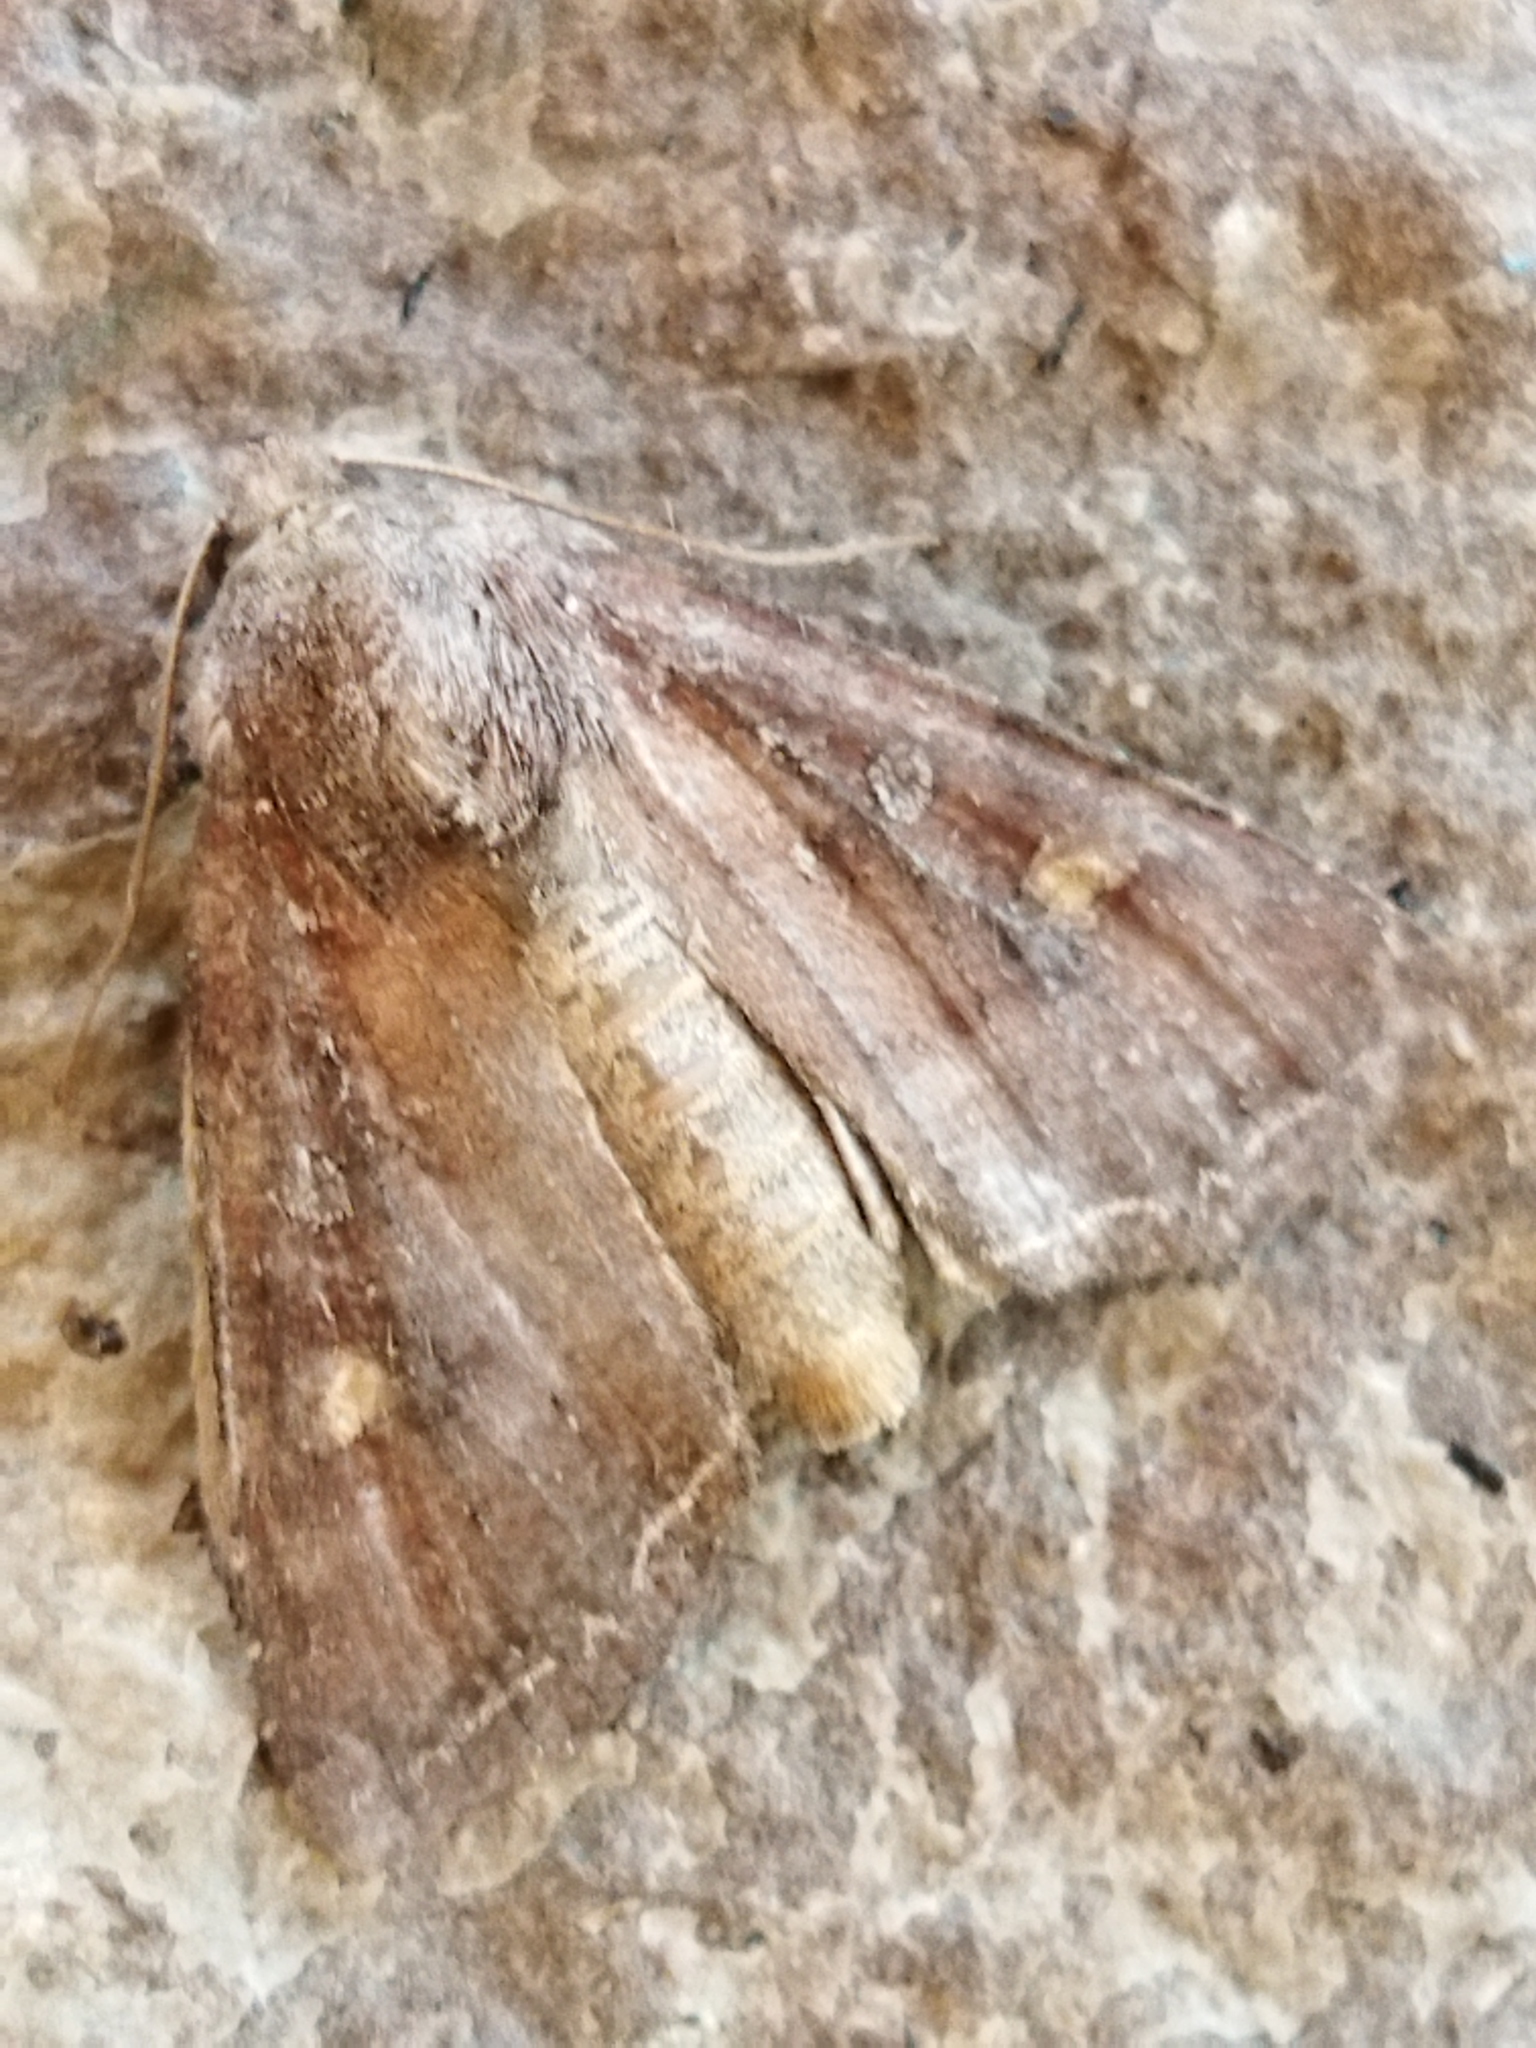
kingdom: Animalia
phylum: Arthropoda
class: Insecta
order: Lepidoptera
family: Noctuidae
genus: Lacanobia
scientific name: Lacanobia oleracea
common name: Bright-line brown-eye
